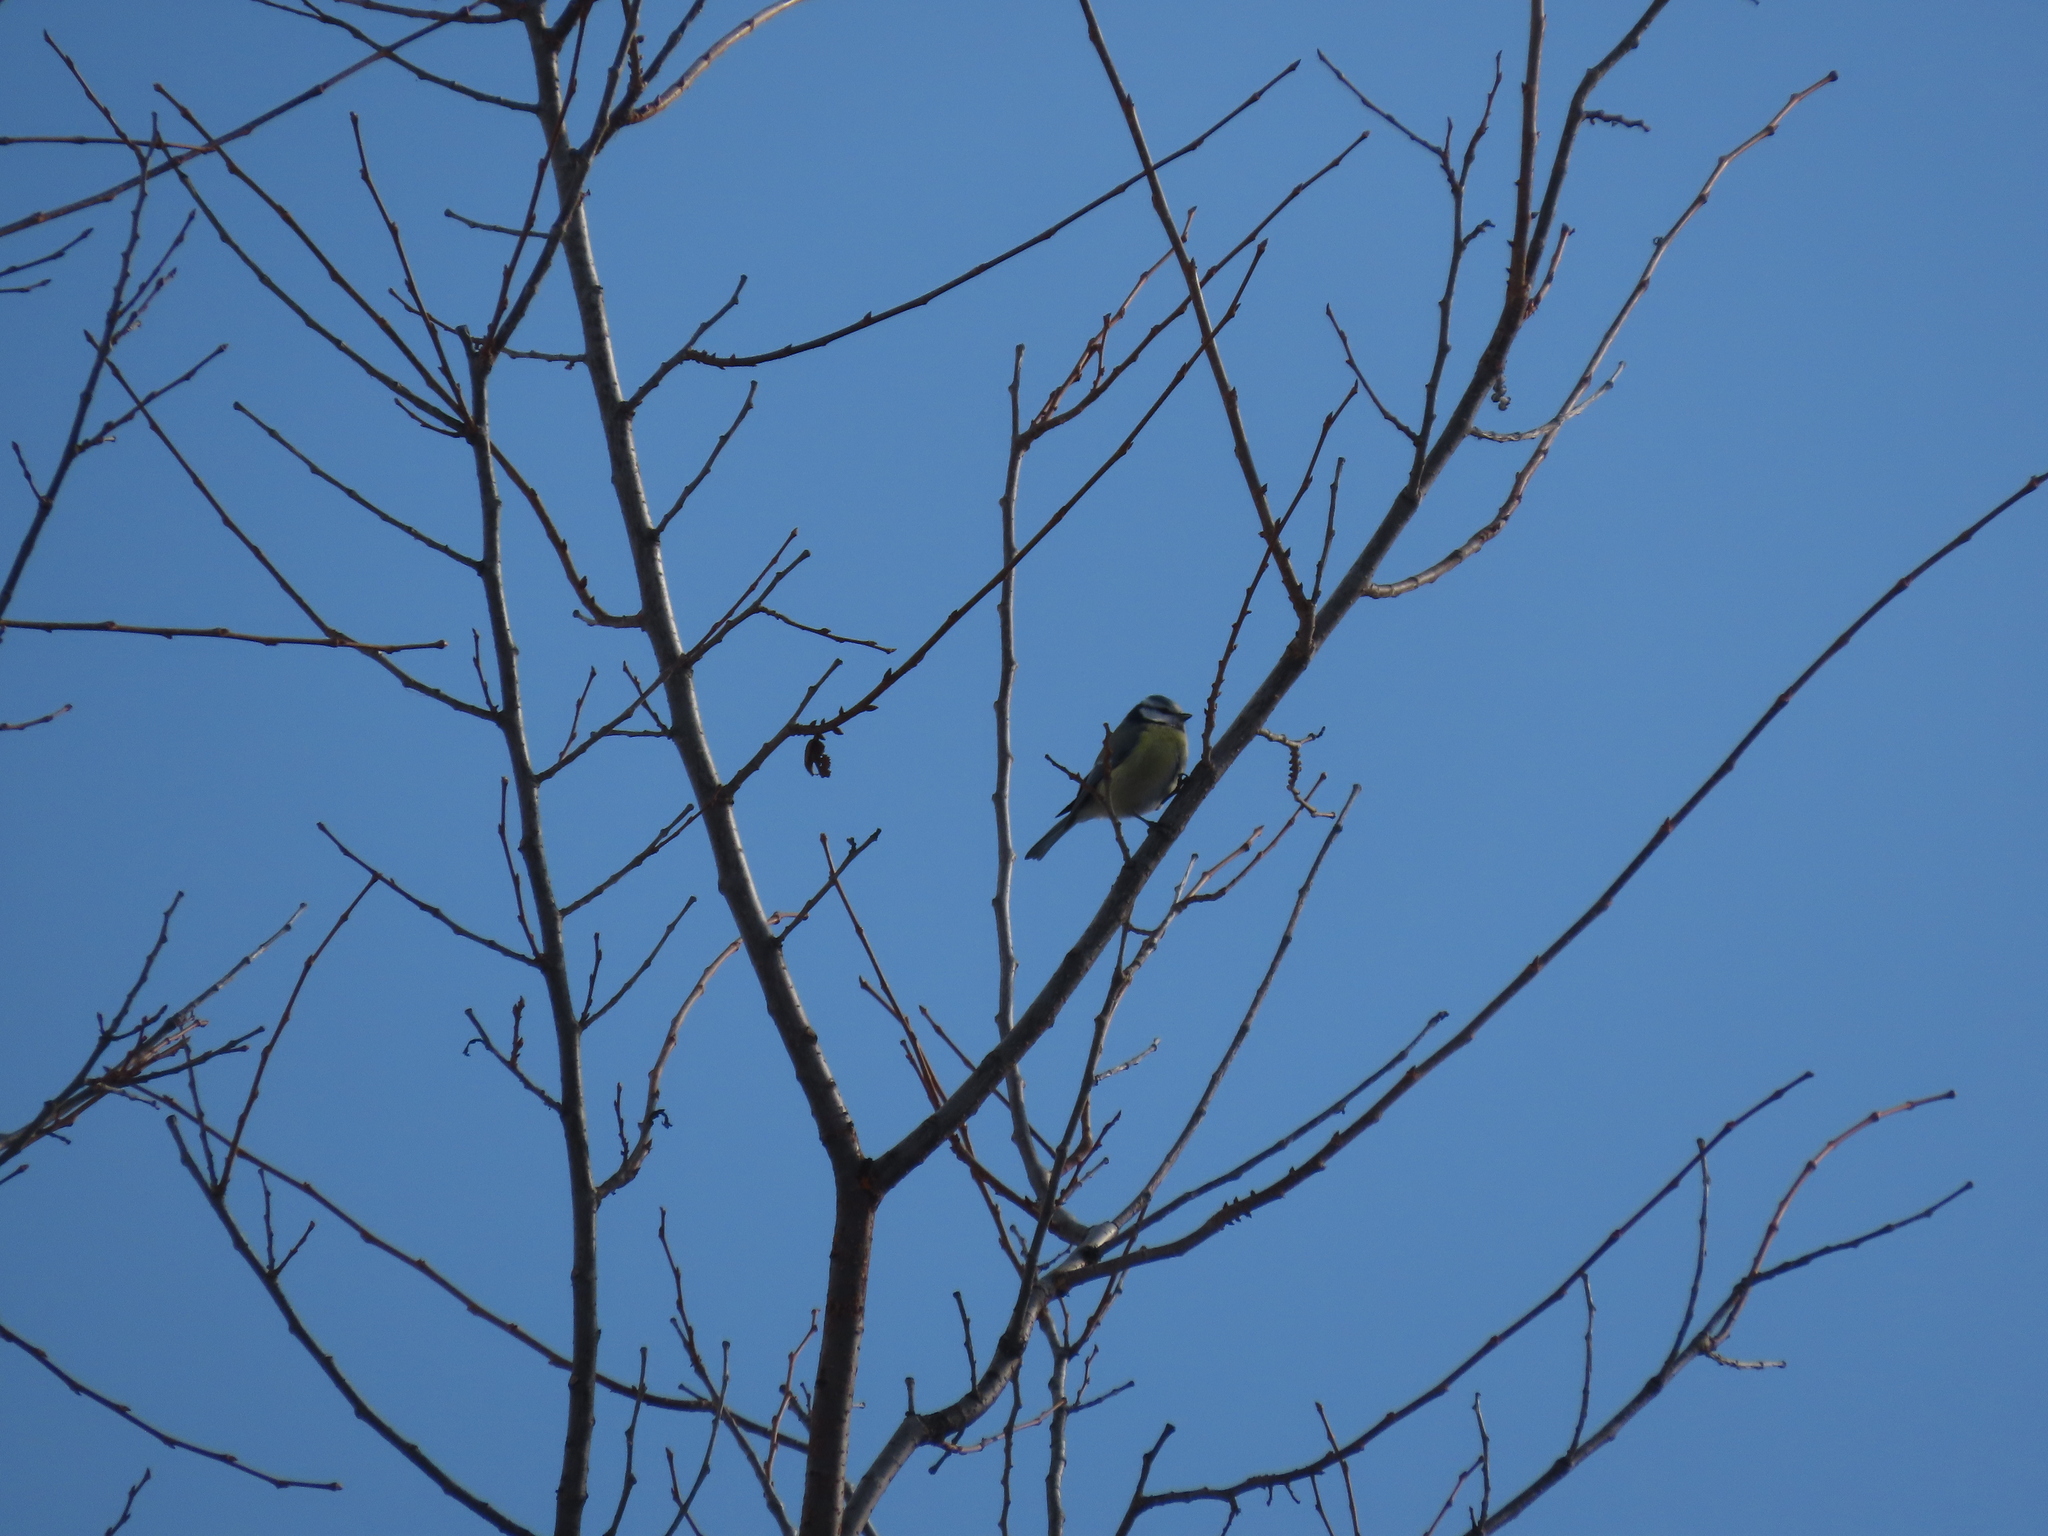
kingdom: Animalia
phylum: Chordata
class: Aves
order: Passeriformes
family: Paridae
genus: Cyanistes
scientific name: Cyanistes caeruleus
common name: Eurasian blue tit
